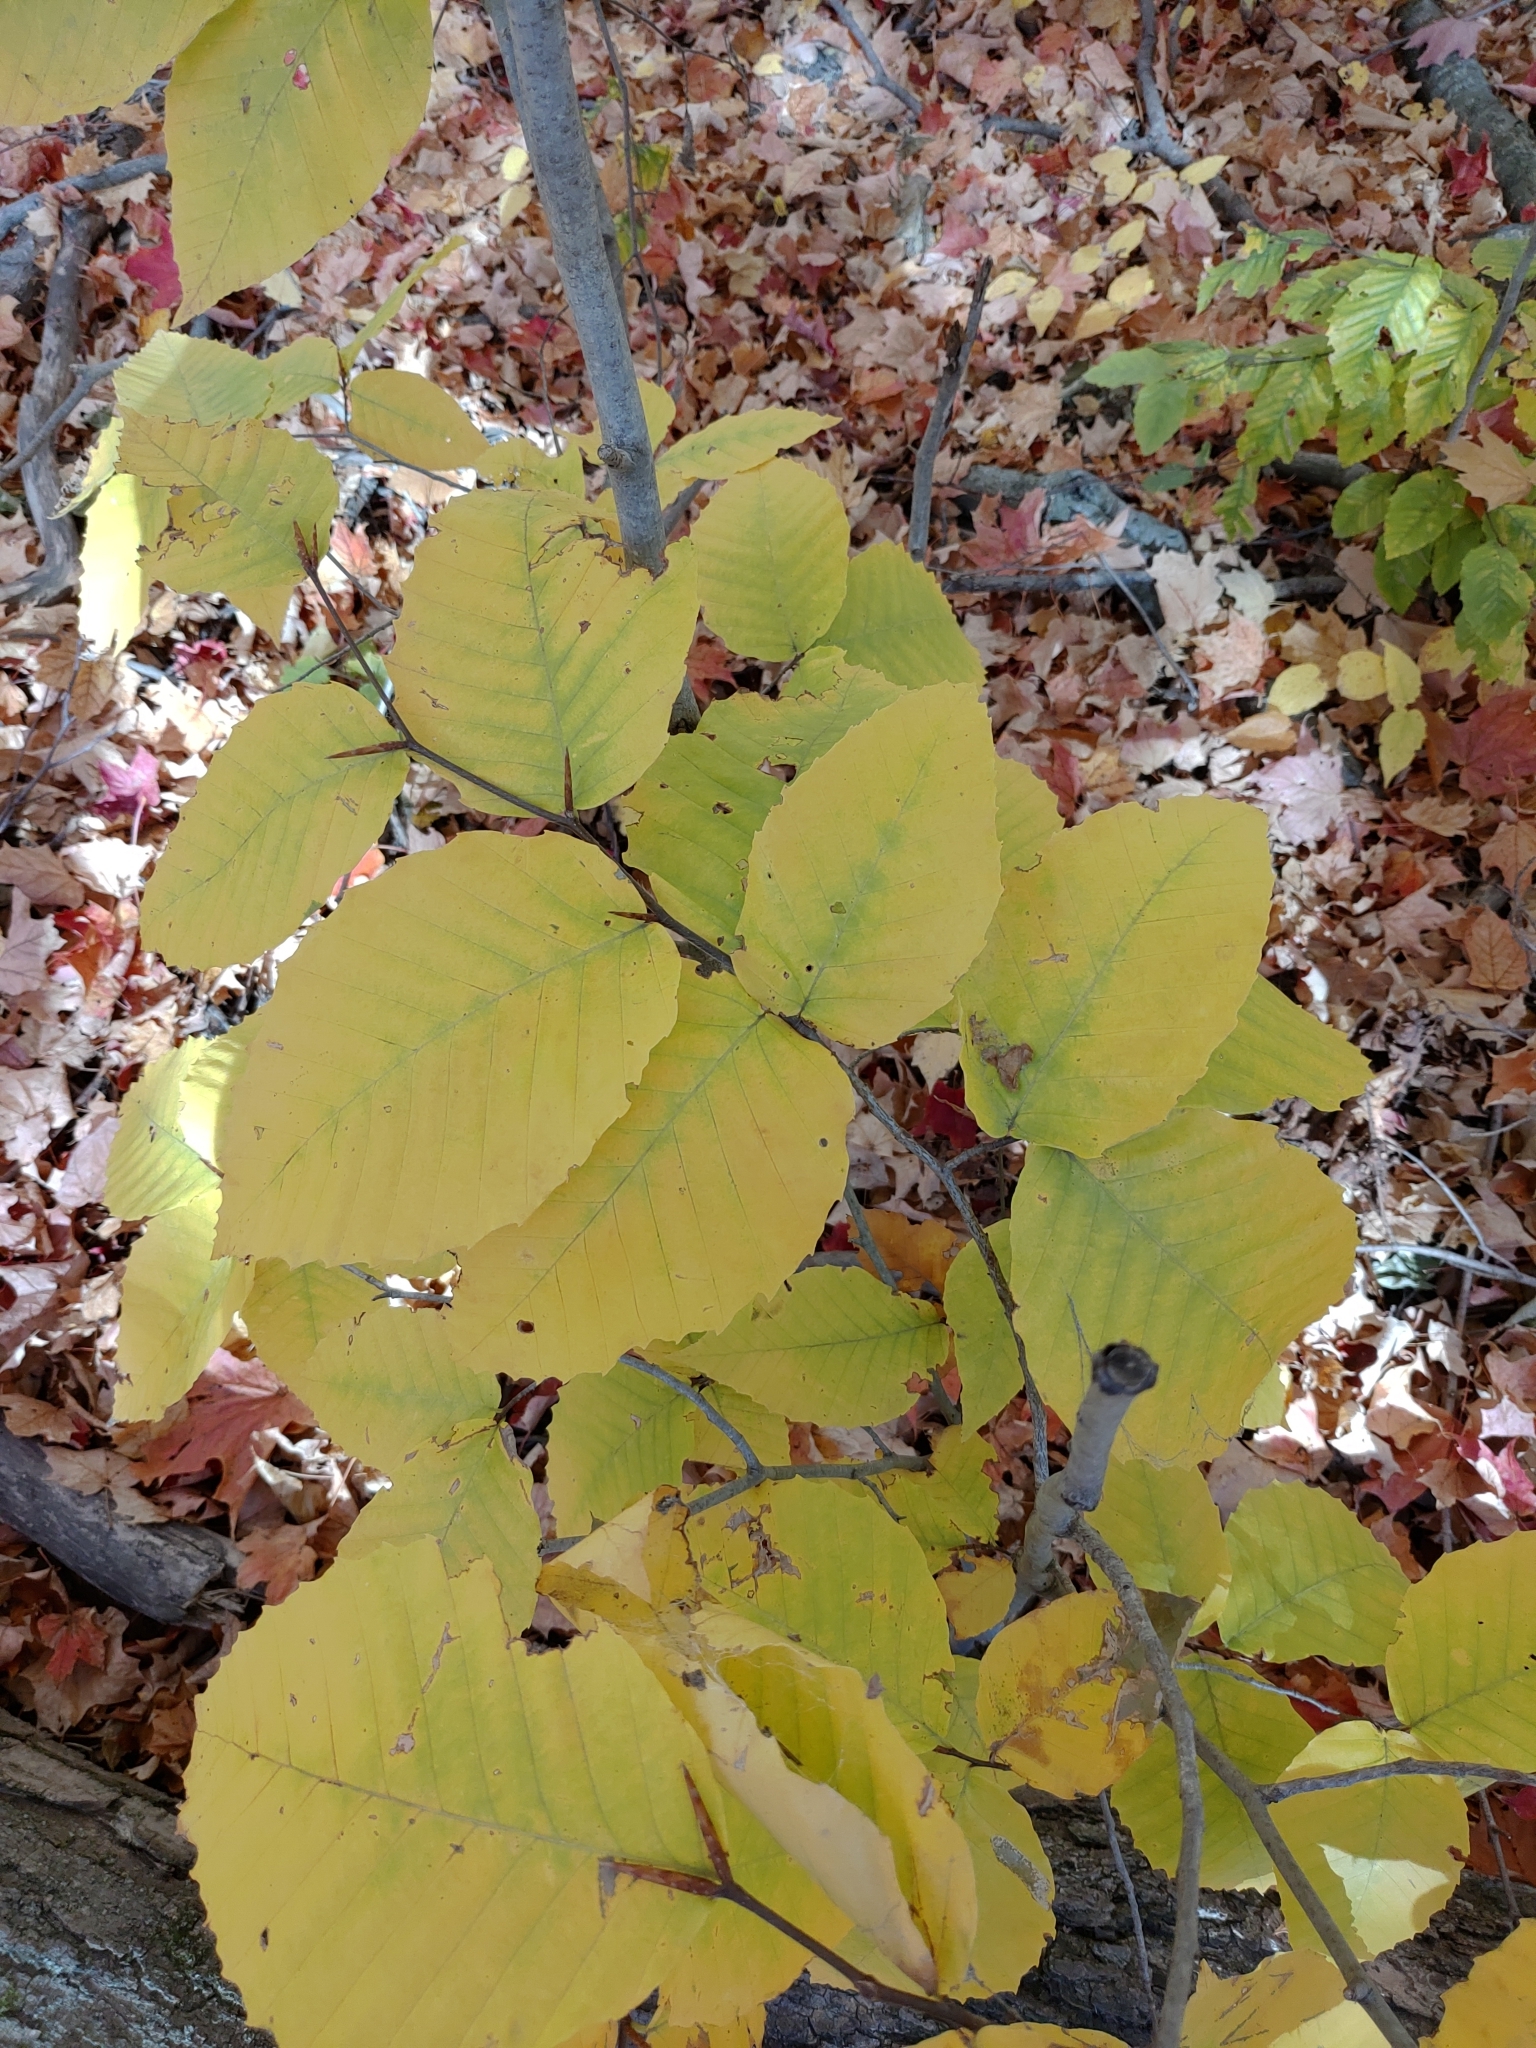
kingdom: Plantae
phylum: Tracheophyta
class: Magnoliopsida
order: Fagales
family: Fagaceae
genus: Fagus
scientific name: Fagus grandifolia
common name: American beech
